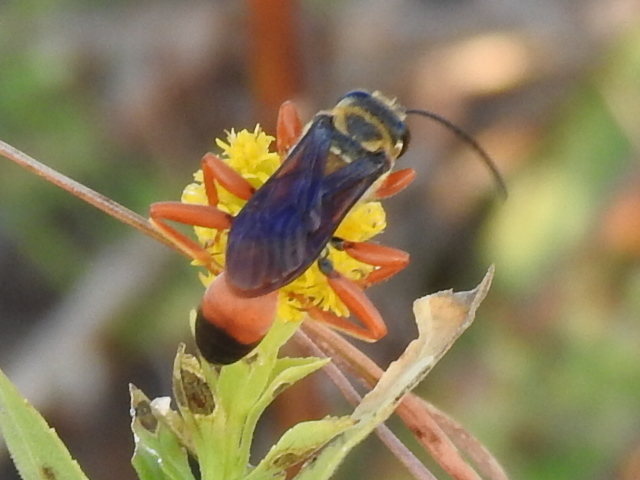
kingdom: Animalia
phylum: Arthropoda
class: Insecta
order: Hymenoptera
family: Sphecidae
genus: Sphex
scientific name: Sphex ichneumoneus
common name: Great golden digger wasp
